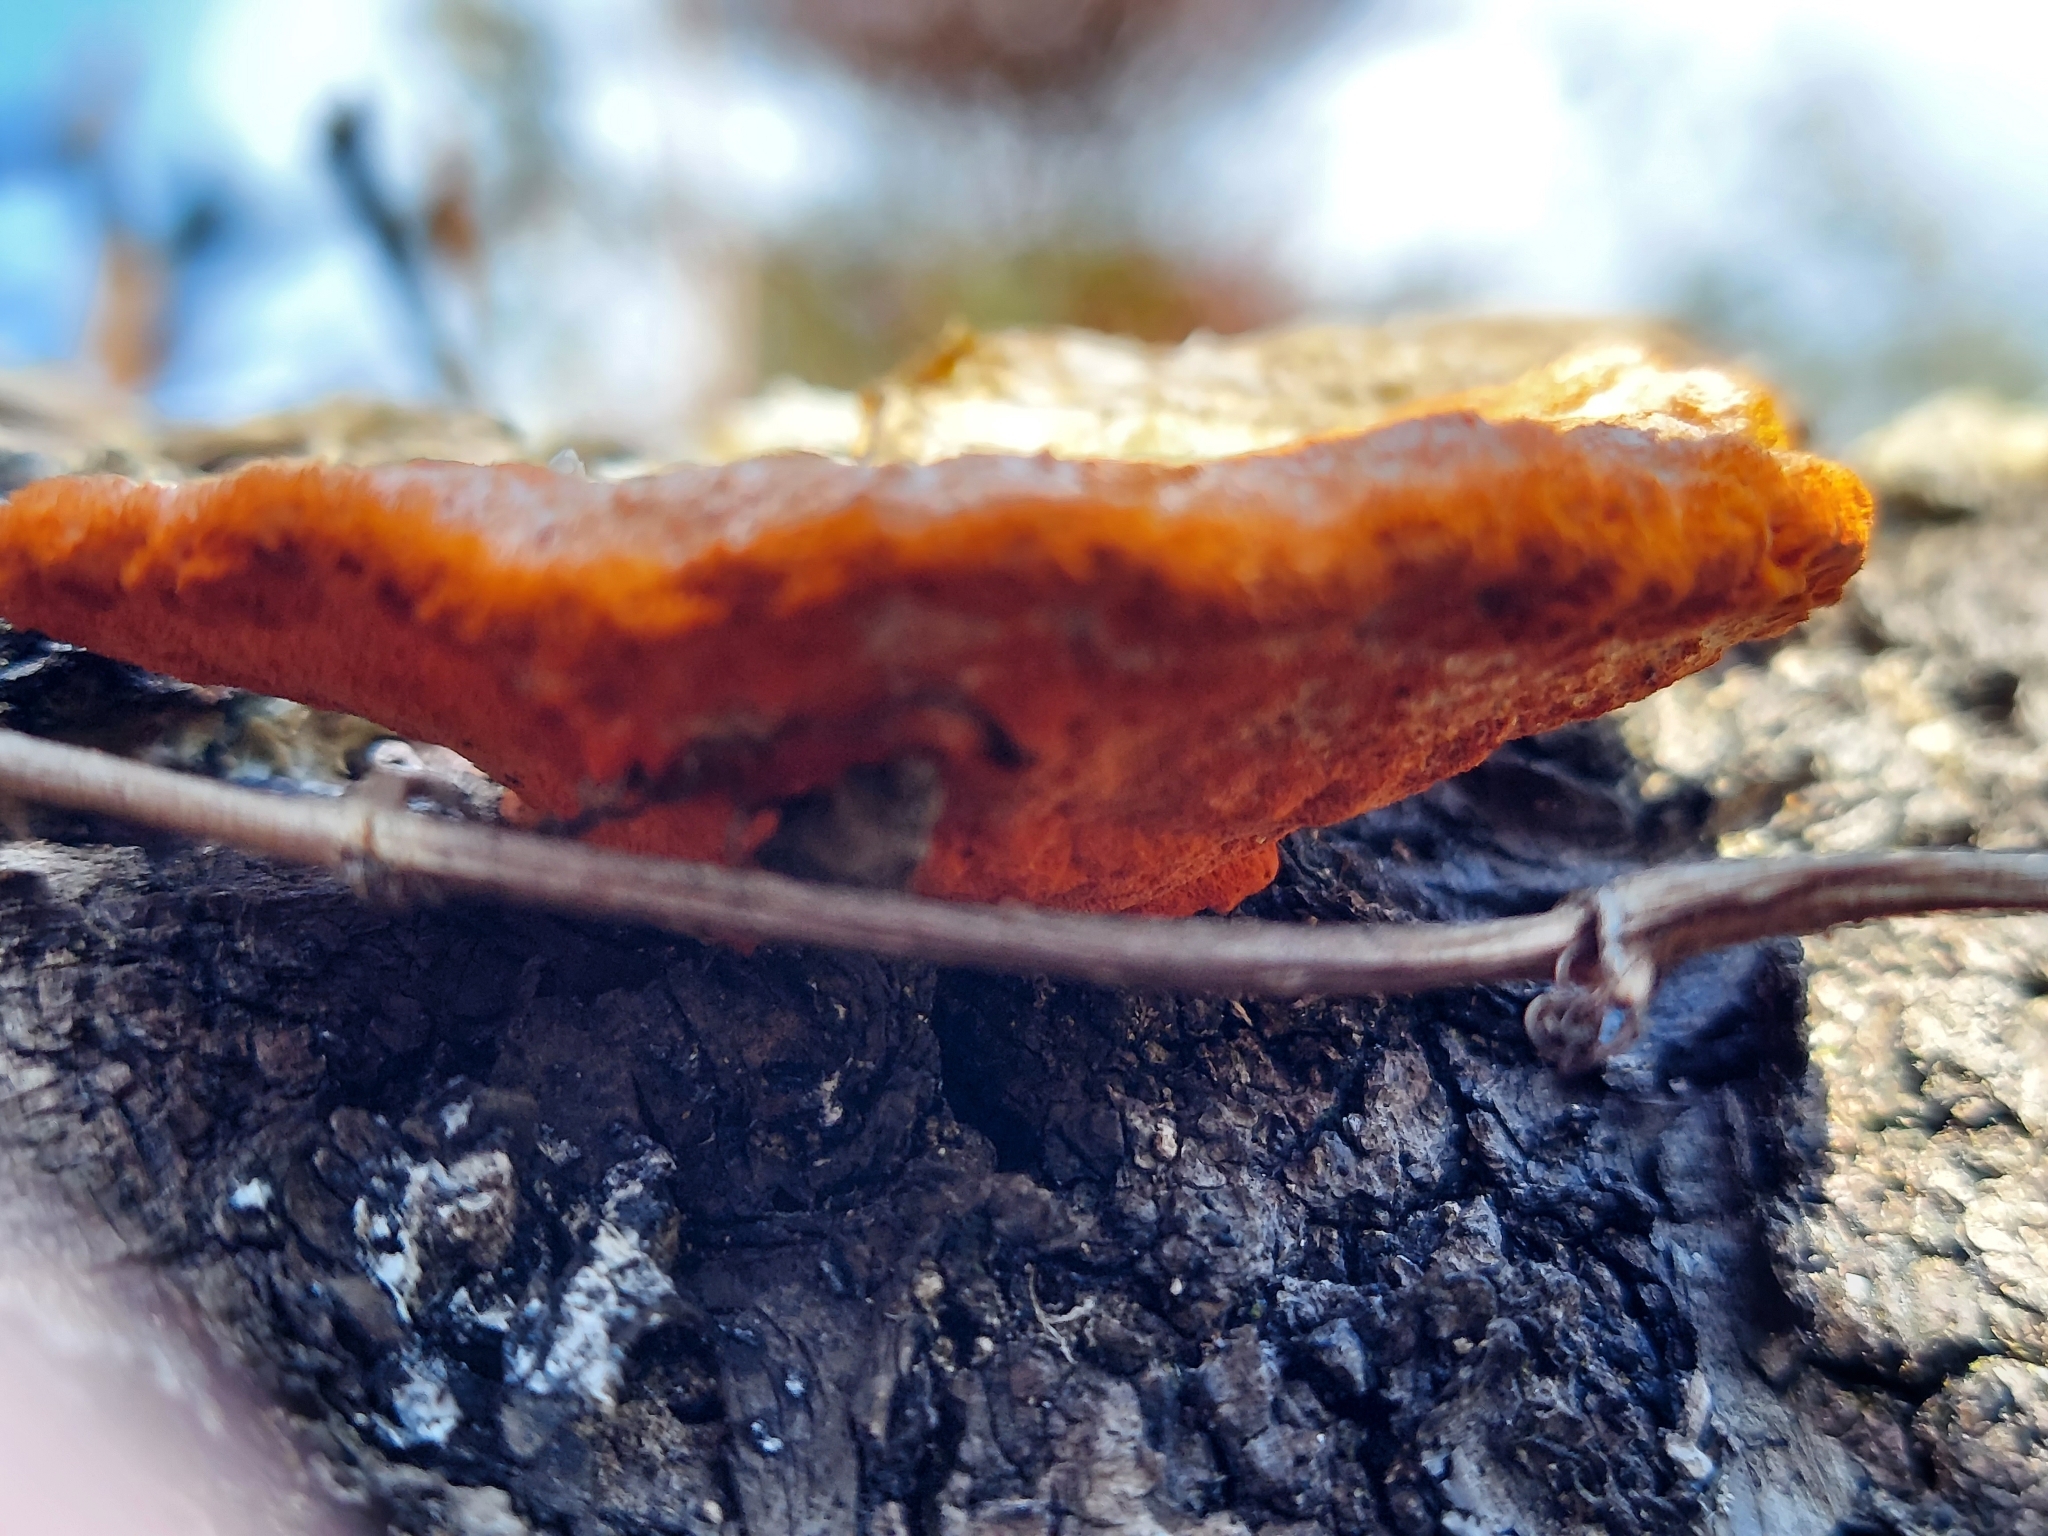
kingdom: Fungi
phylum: Basidiomycota
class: Agaricomycetes
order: Polyporales
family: Polyporaceae
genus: Trametes
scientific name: Trametes coccinea
